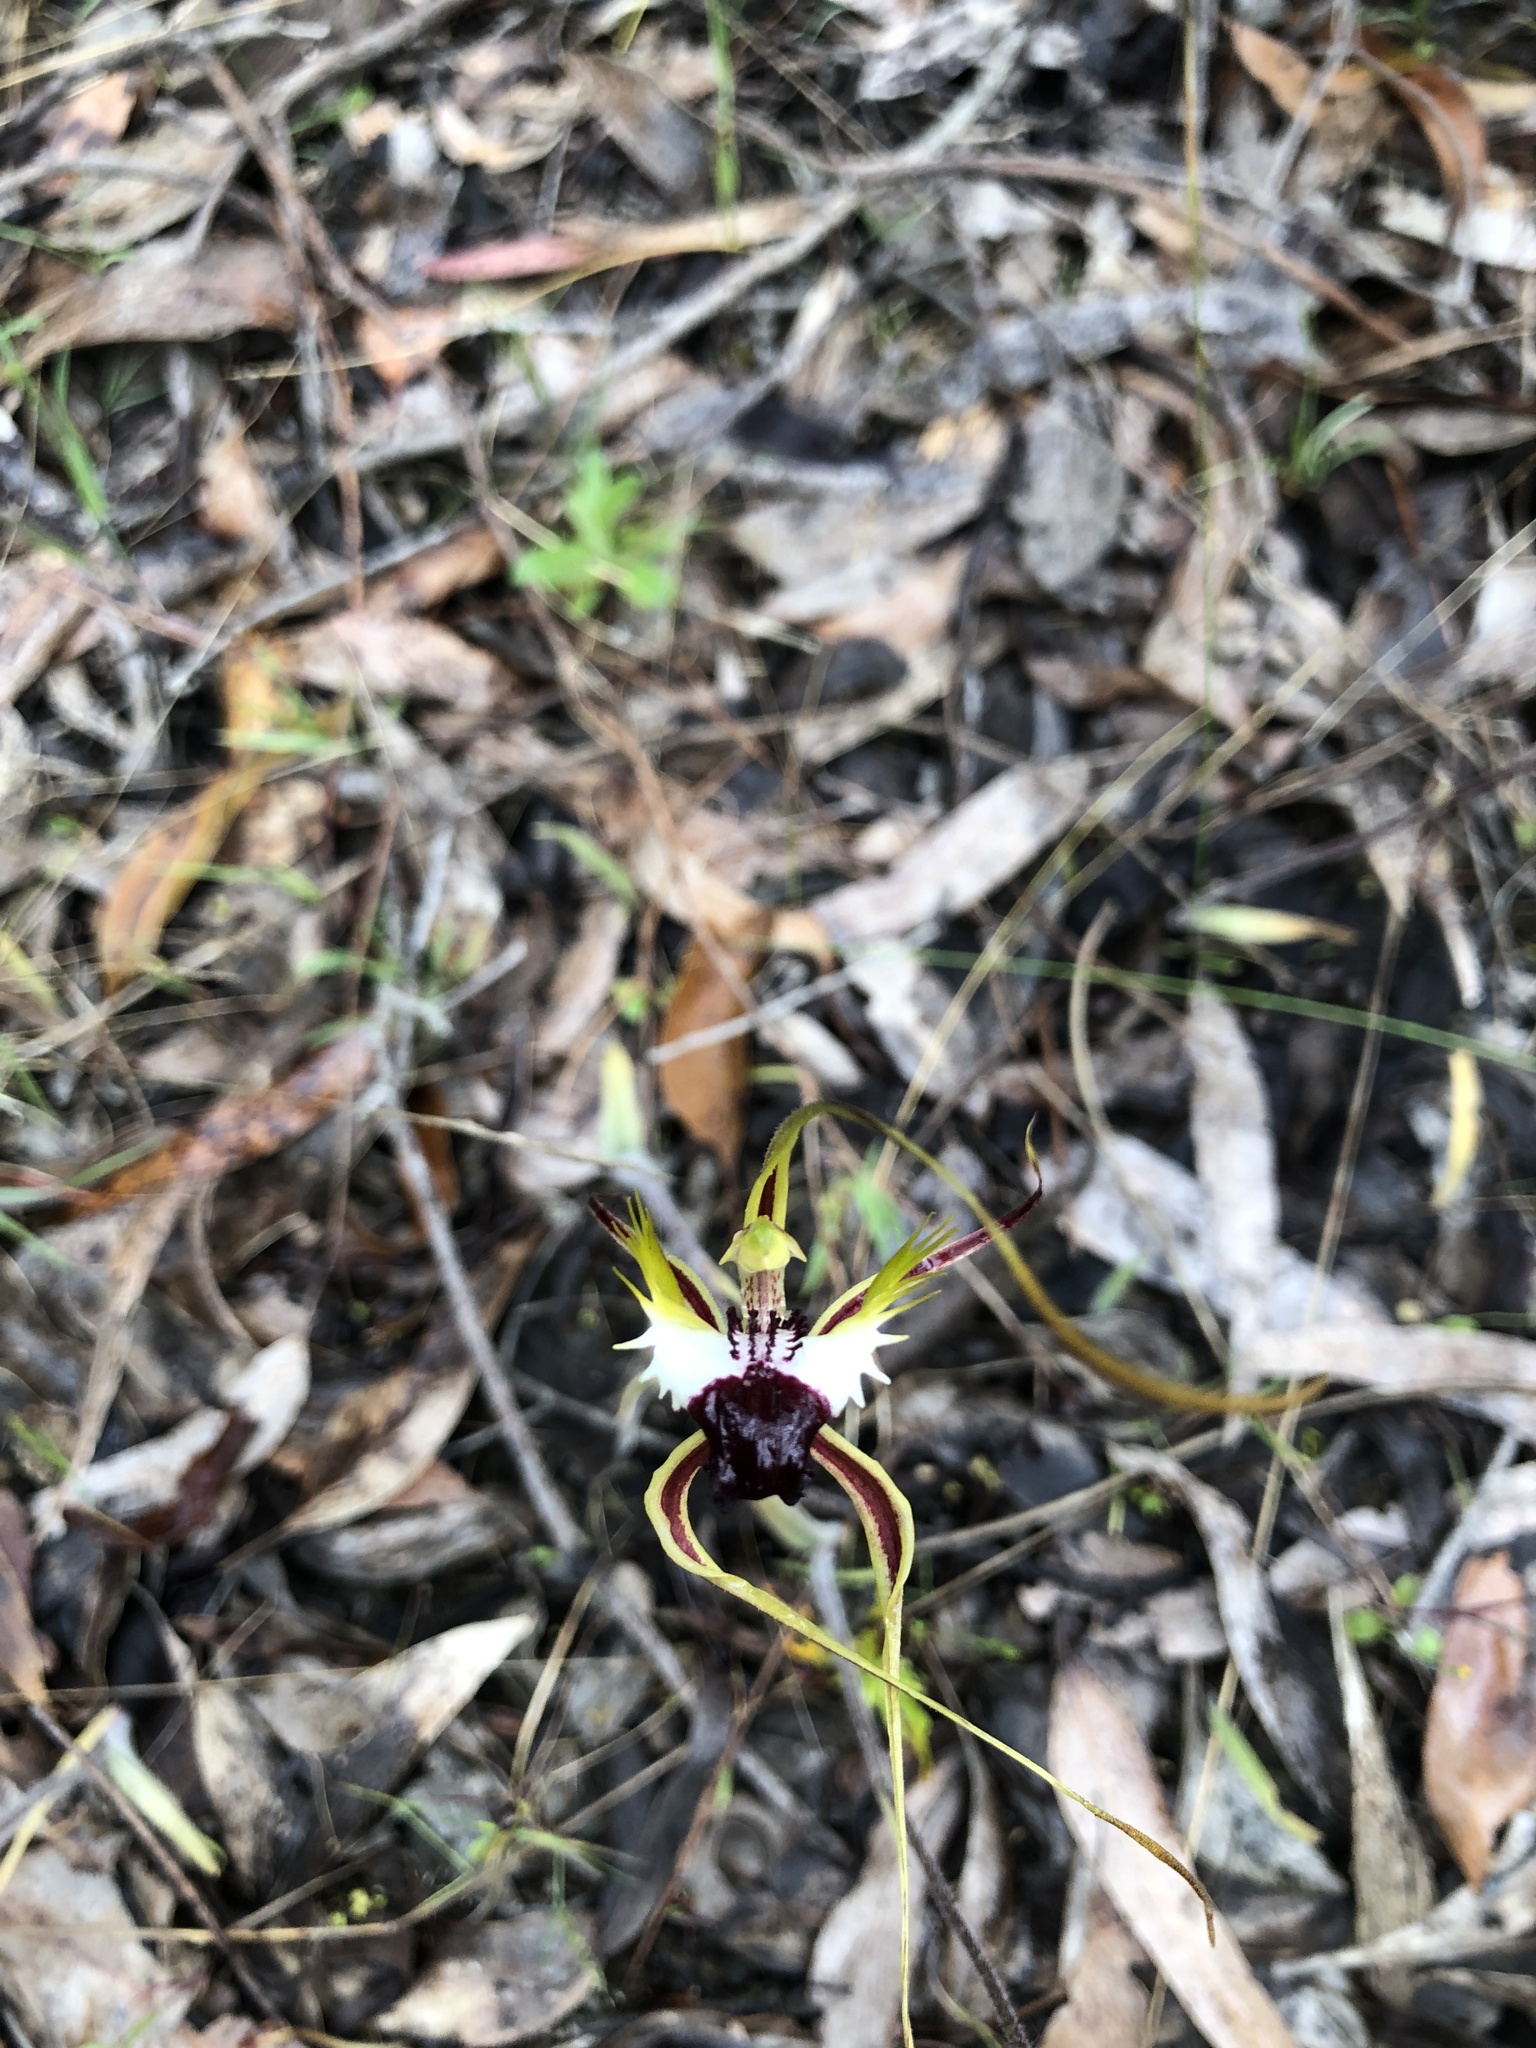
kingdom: Plantae
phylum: Tracheophyta
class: Liliopsida
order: Asparagales
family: Orchidaceae
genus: Caladenia
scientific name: Caladenia tentaculata
